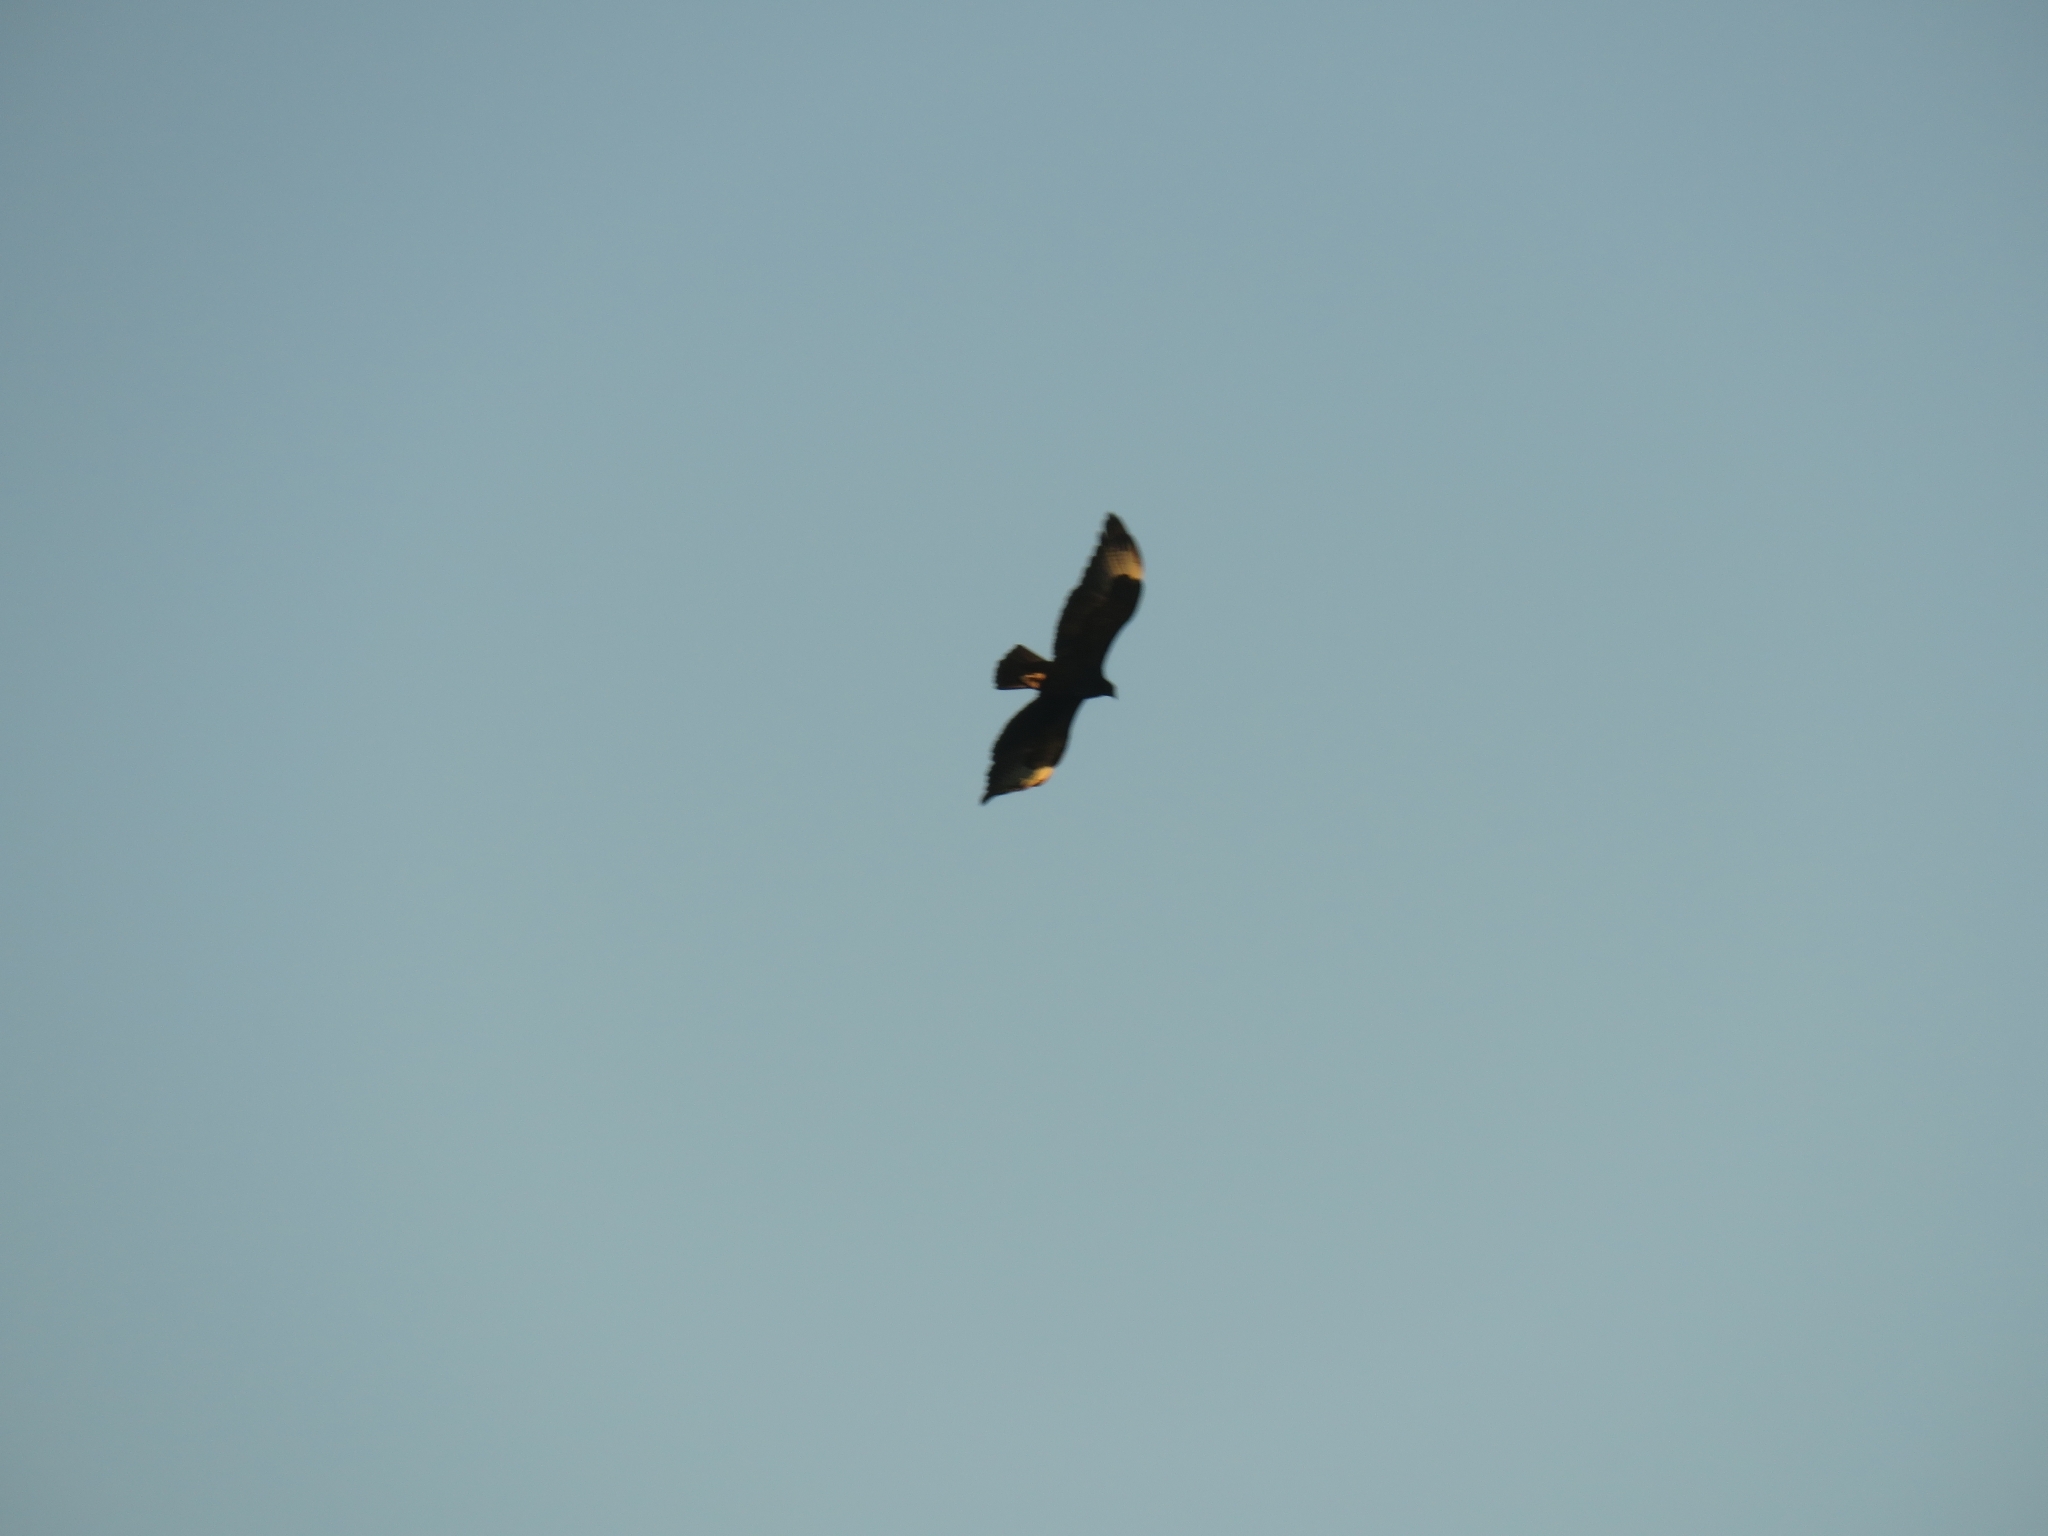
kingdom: Animalia
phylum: Chordata
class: Aves
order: Accipitriformes
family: Accipitridae
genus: Aquila
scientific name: Aquila verreauxii
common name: Verreaux's eagle
